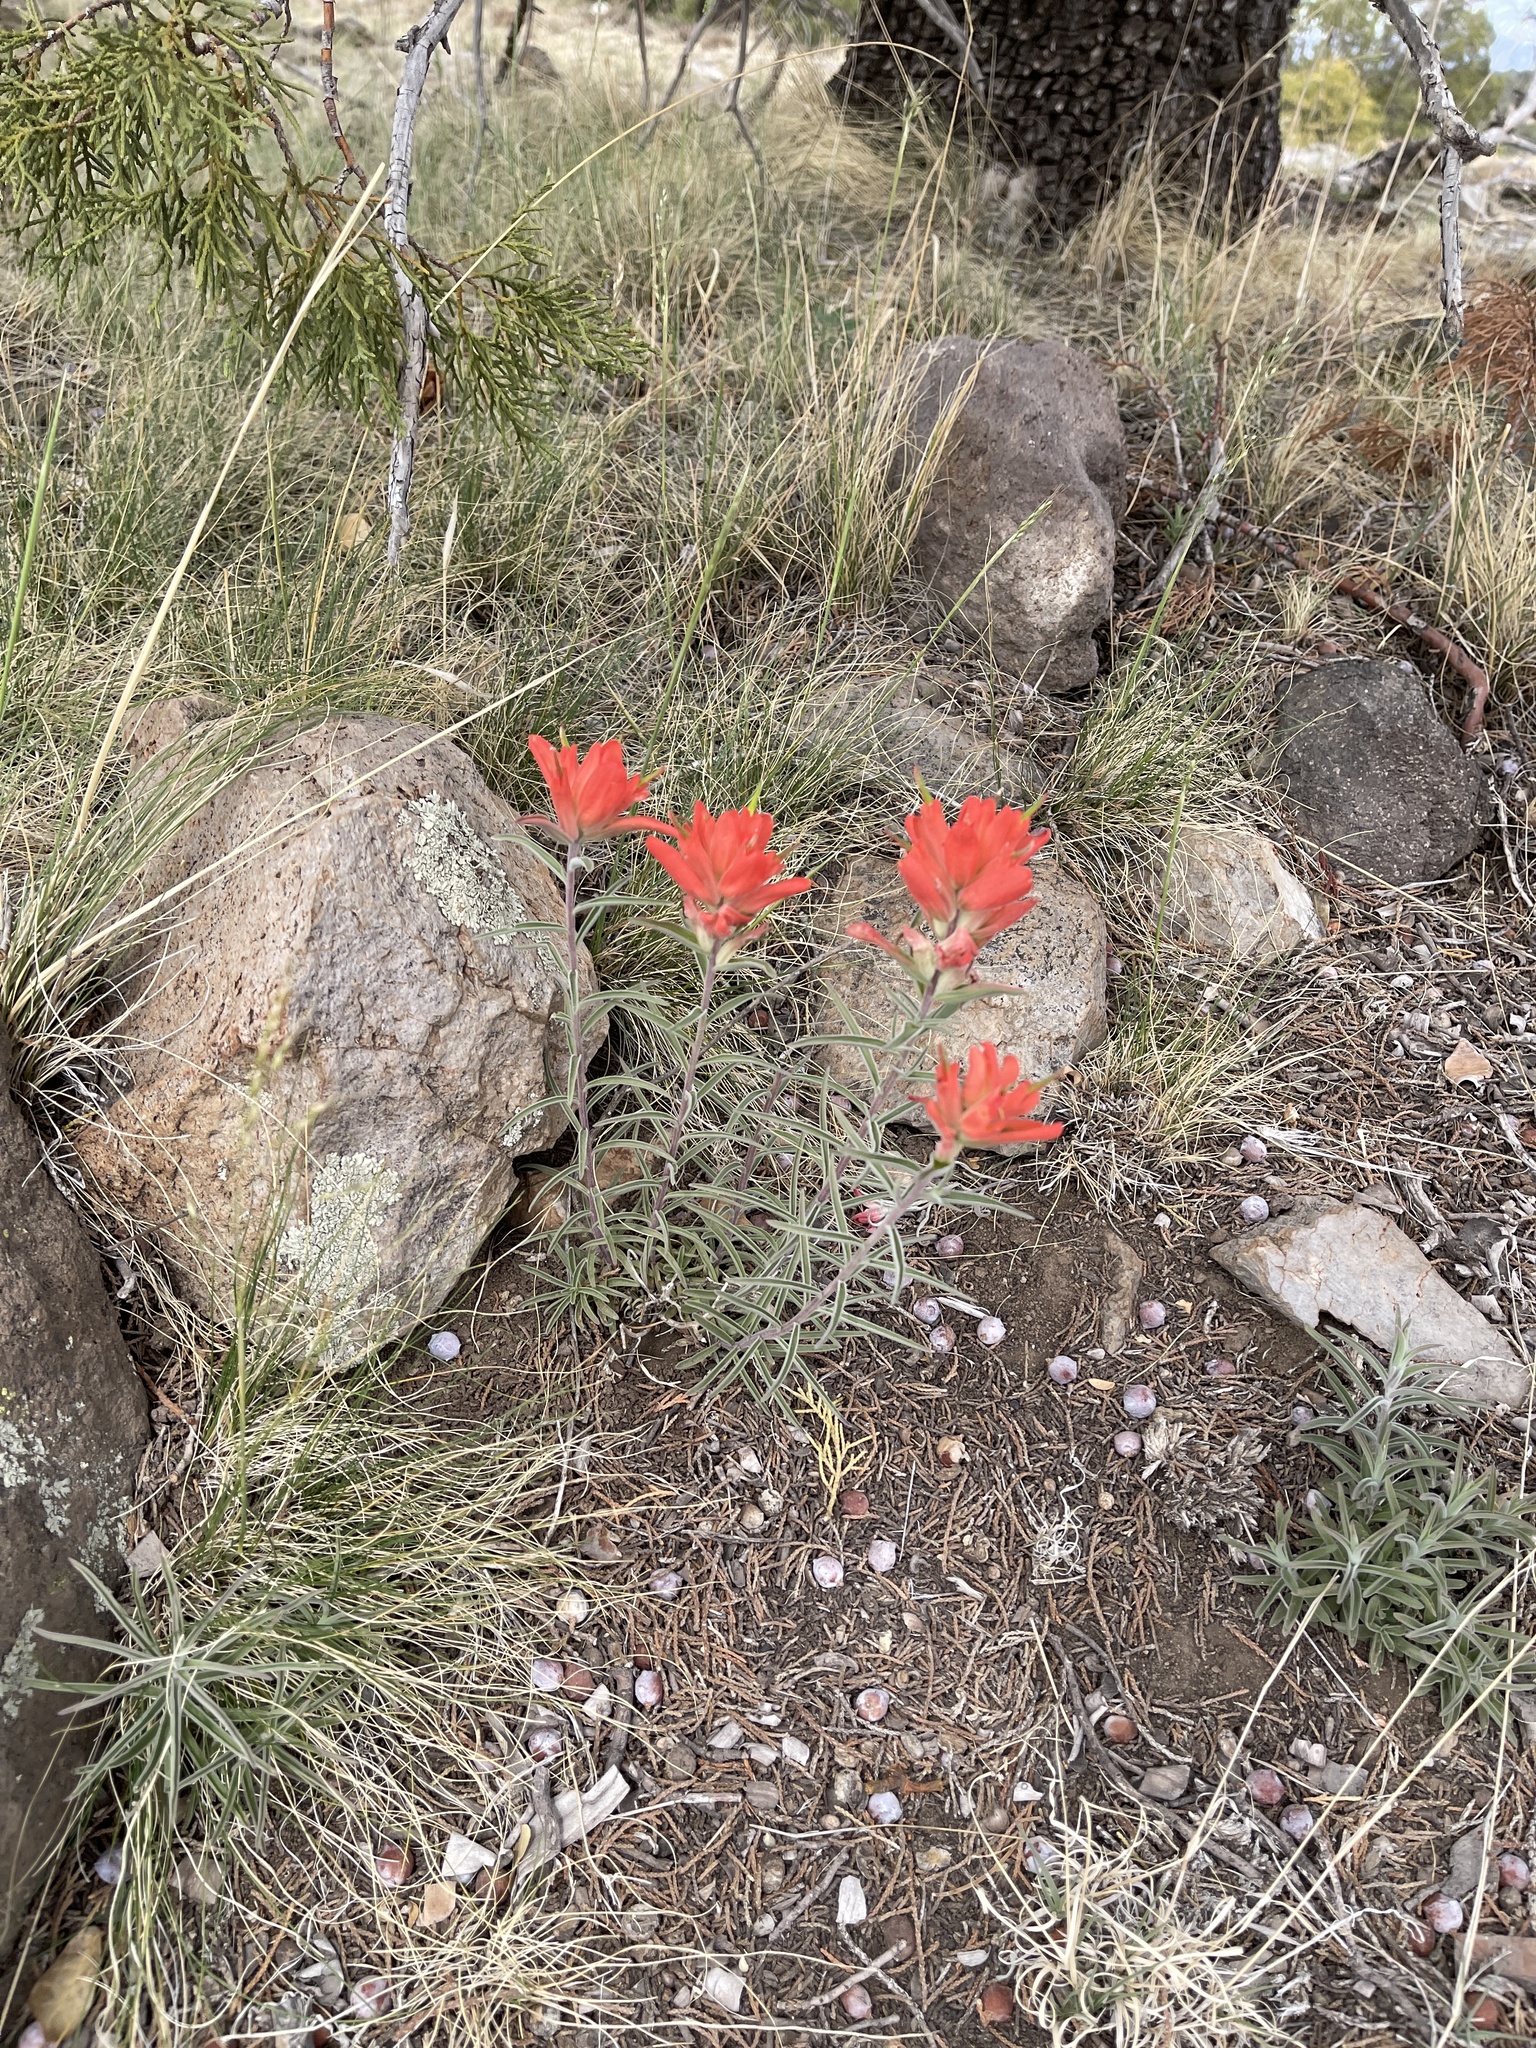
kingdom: Plantae
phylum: Tracheophyta
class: Magnoliopsida
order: Lamiales
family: Orobanchaceae
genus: Castilleja
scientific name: Castilleja integra
